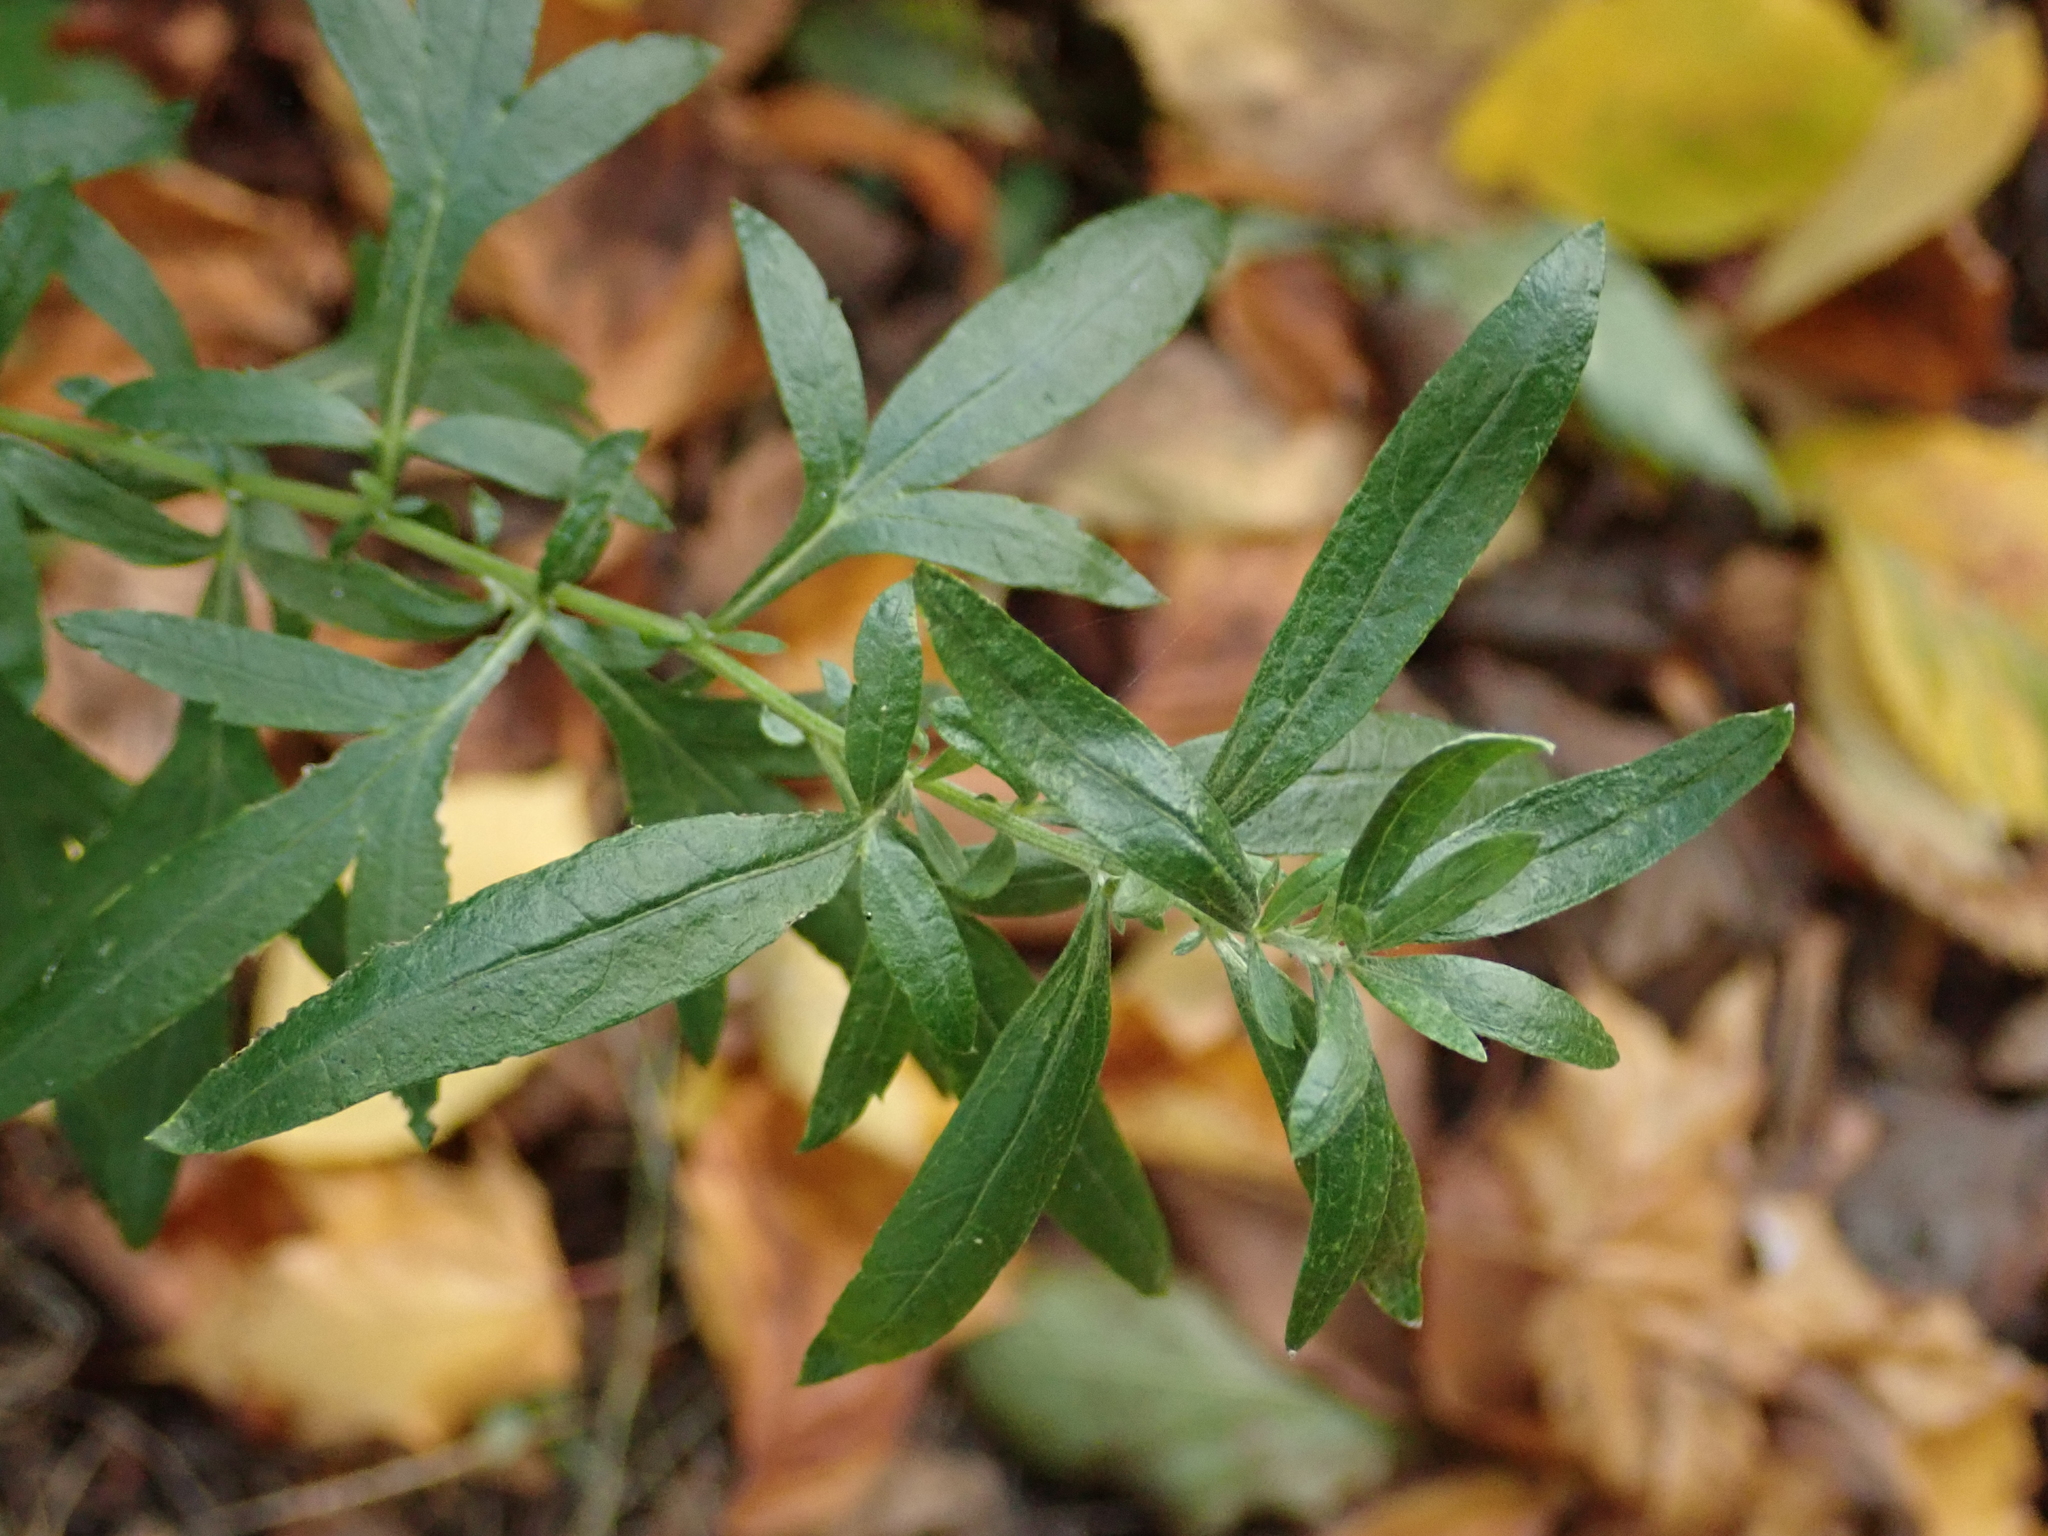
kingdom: Plantae
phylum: Tracheophyta
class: Magnoliopsida
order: Asterales
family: Asteraceae
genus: Artemisia
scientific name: Artemisia vulgaris
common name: Mugwort
